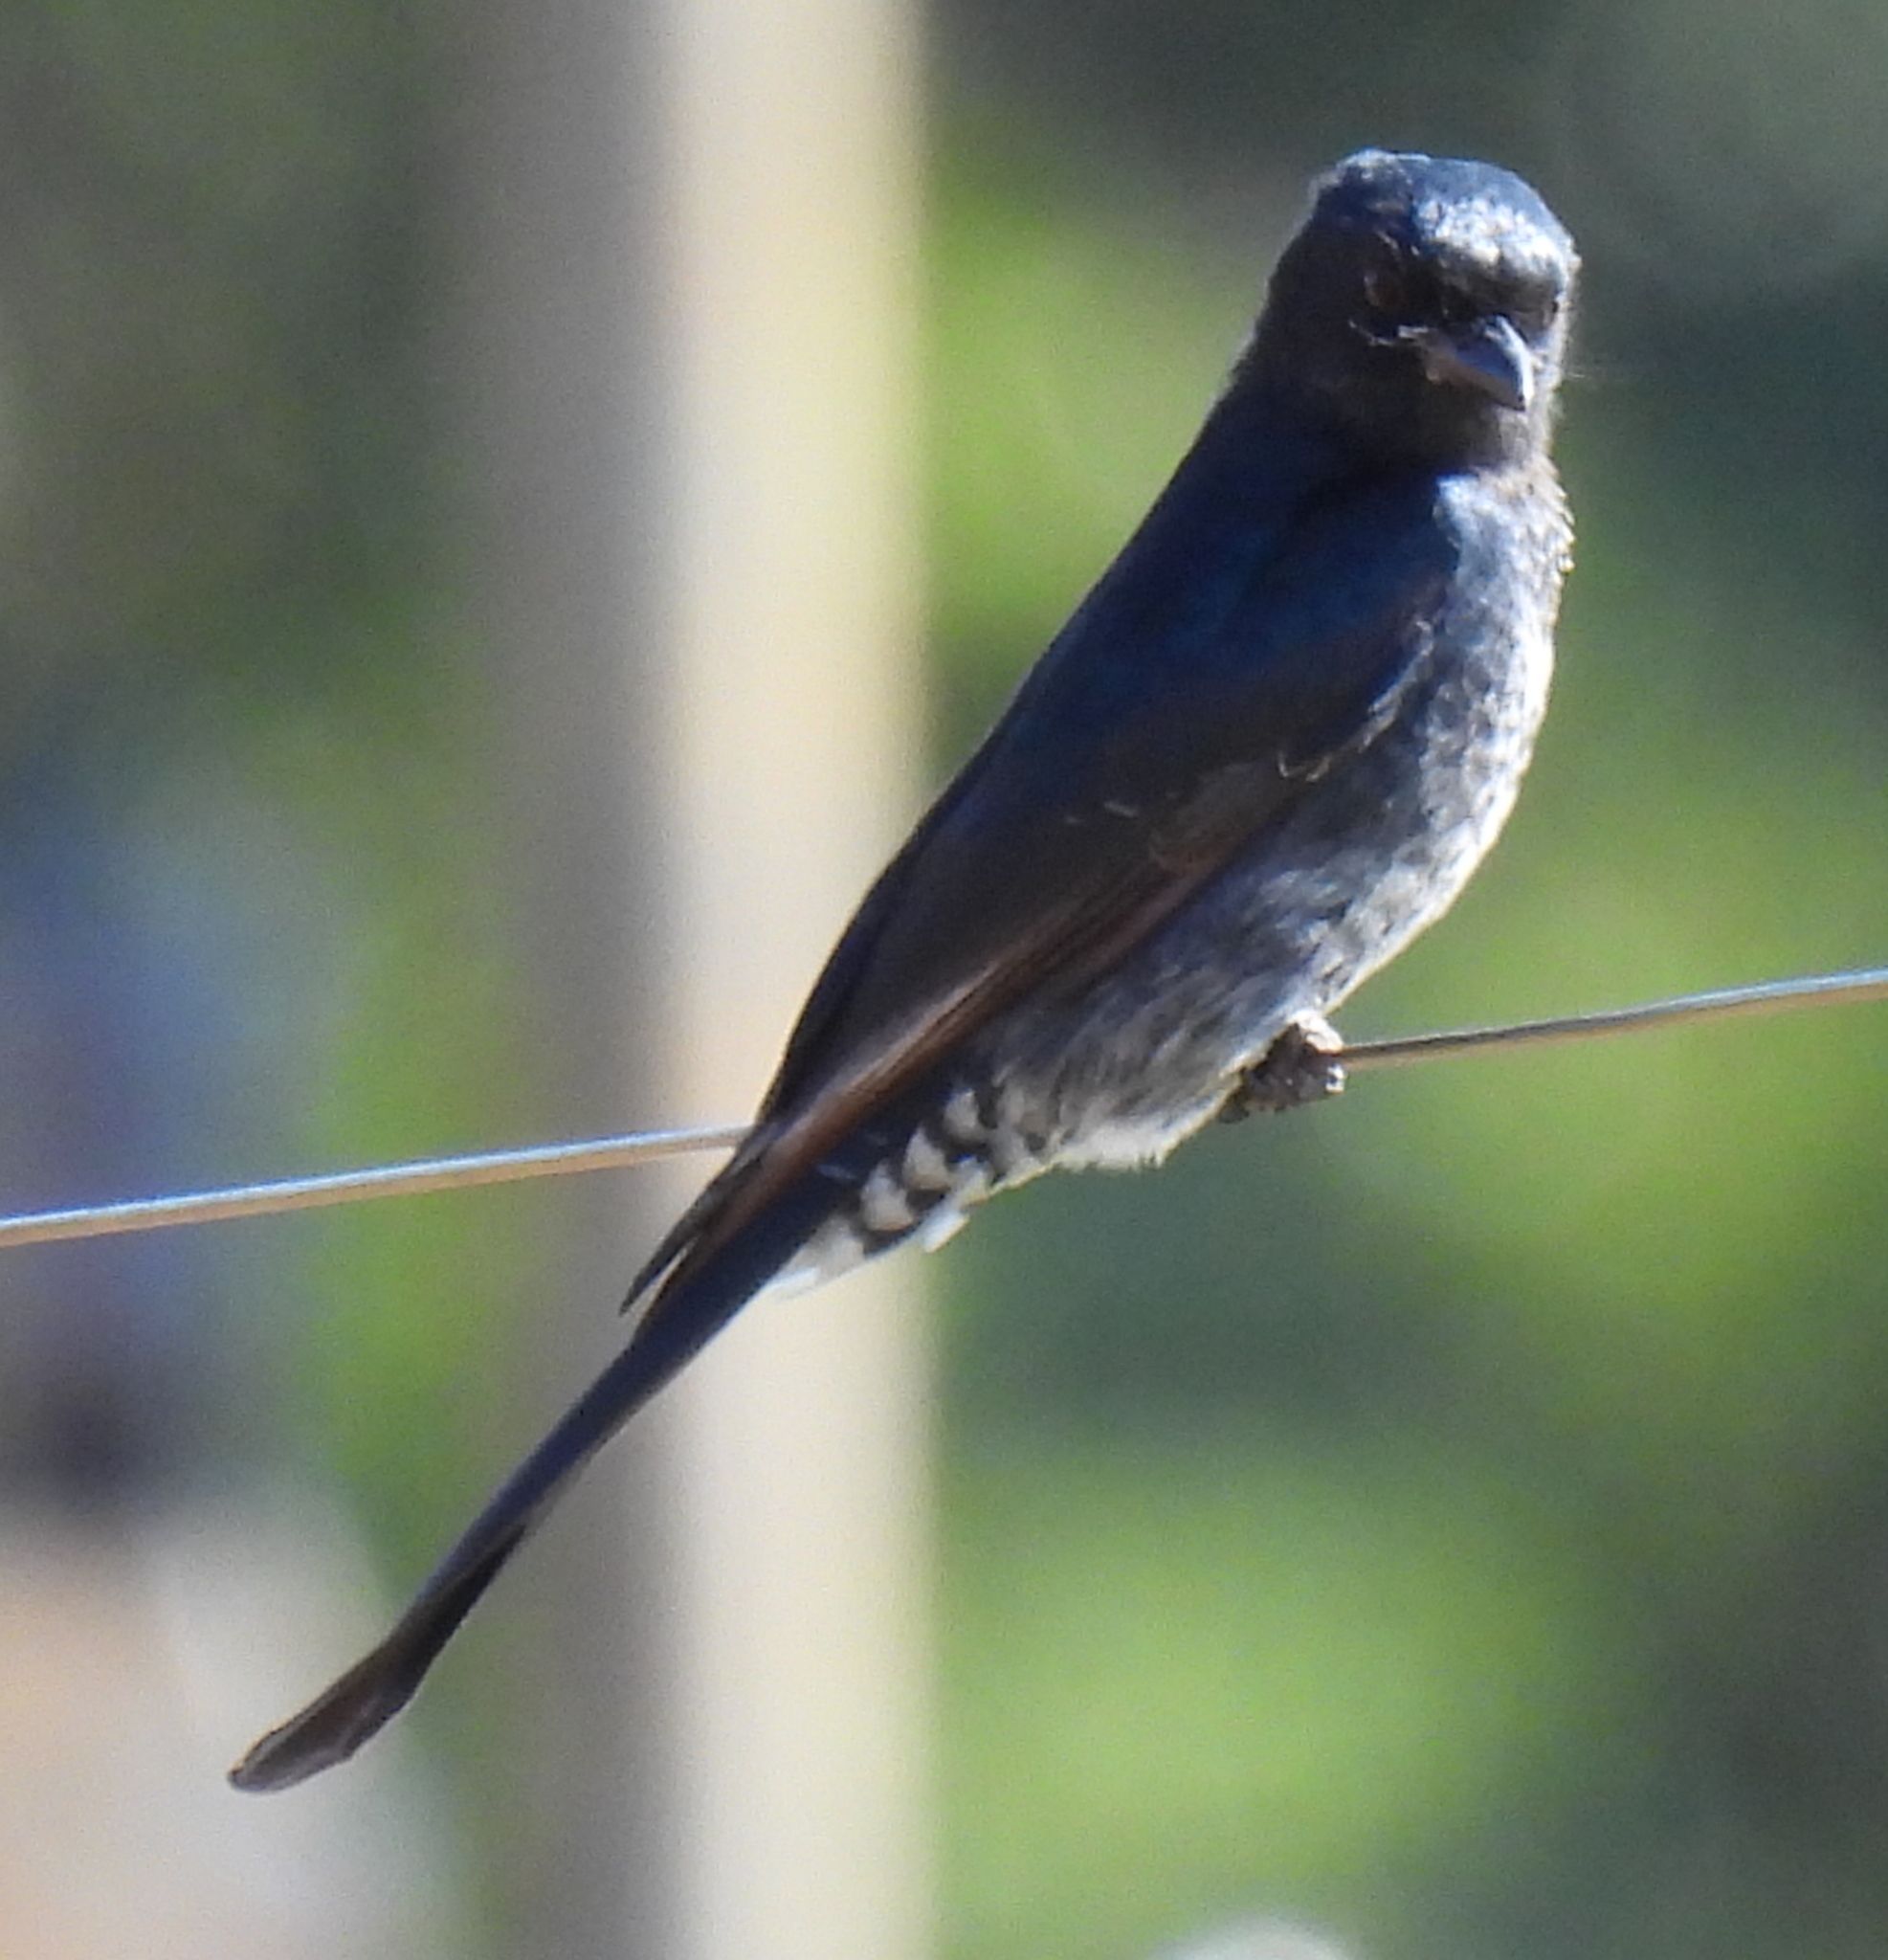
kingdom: Animalia
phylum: Chordata
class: Aves
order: Passeriformes
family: Dicruridae
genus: Dicrurus
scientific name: Dicrurus adsimilis
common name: Fork-tailed drongo
